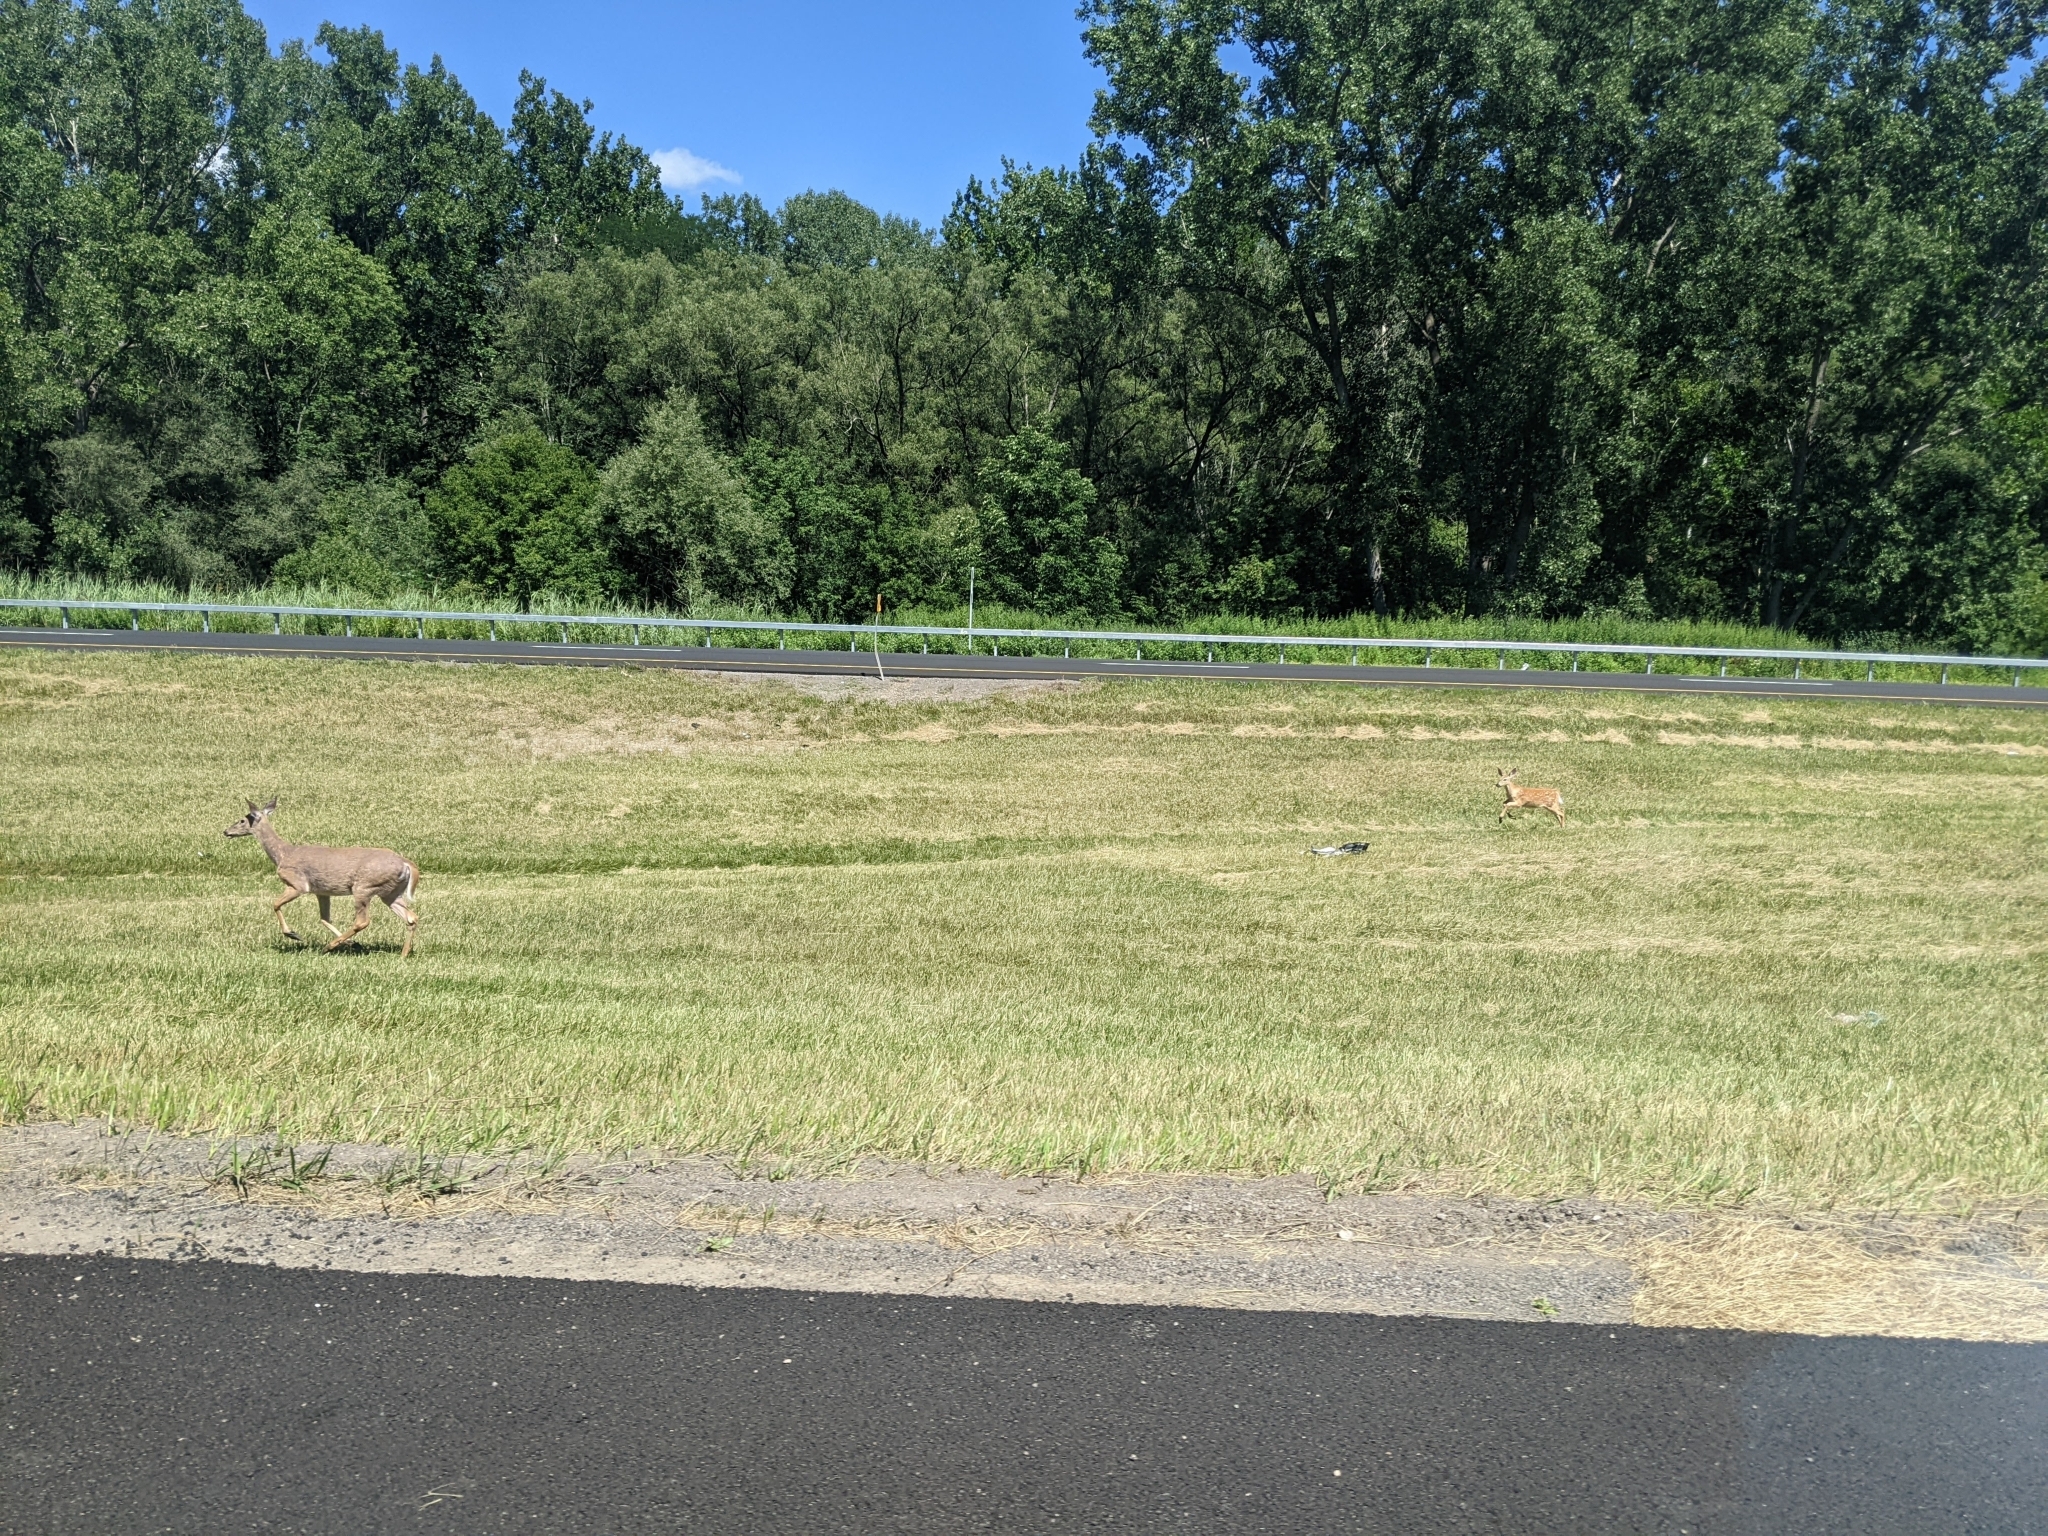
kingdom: Animalia
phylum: Chordata
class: Mammalia
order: Artiodactyla
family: Cervidae
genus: Odocoileus
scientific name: Odocoileus virginianus
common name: White-tailed deer
